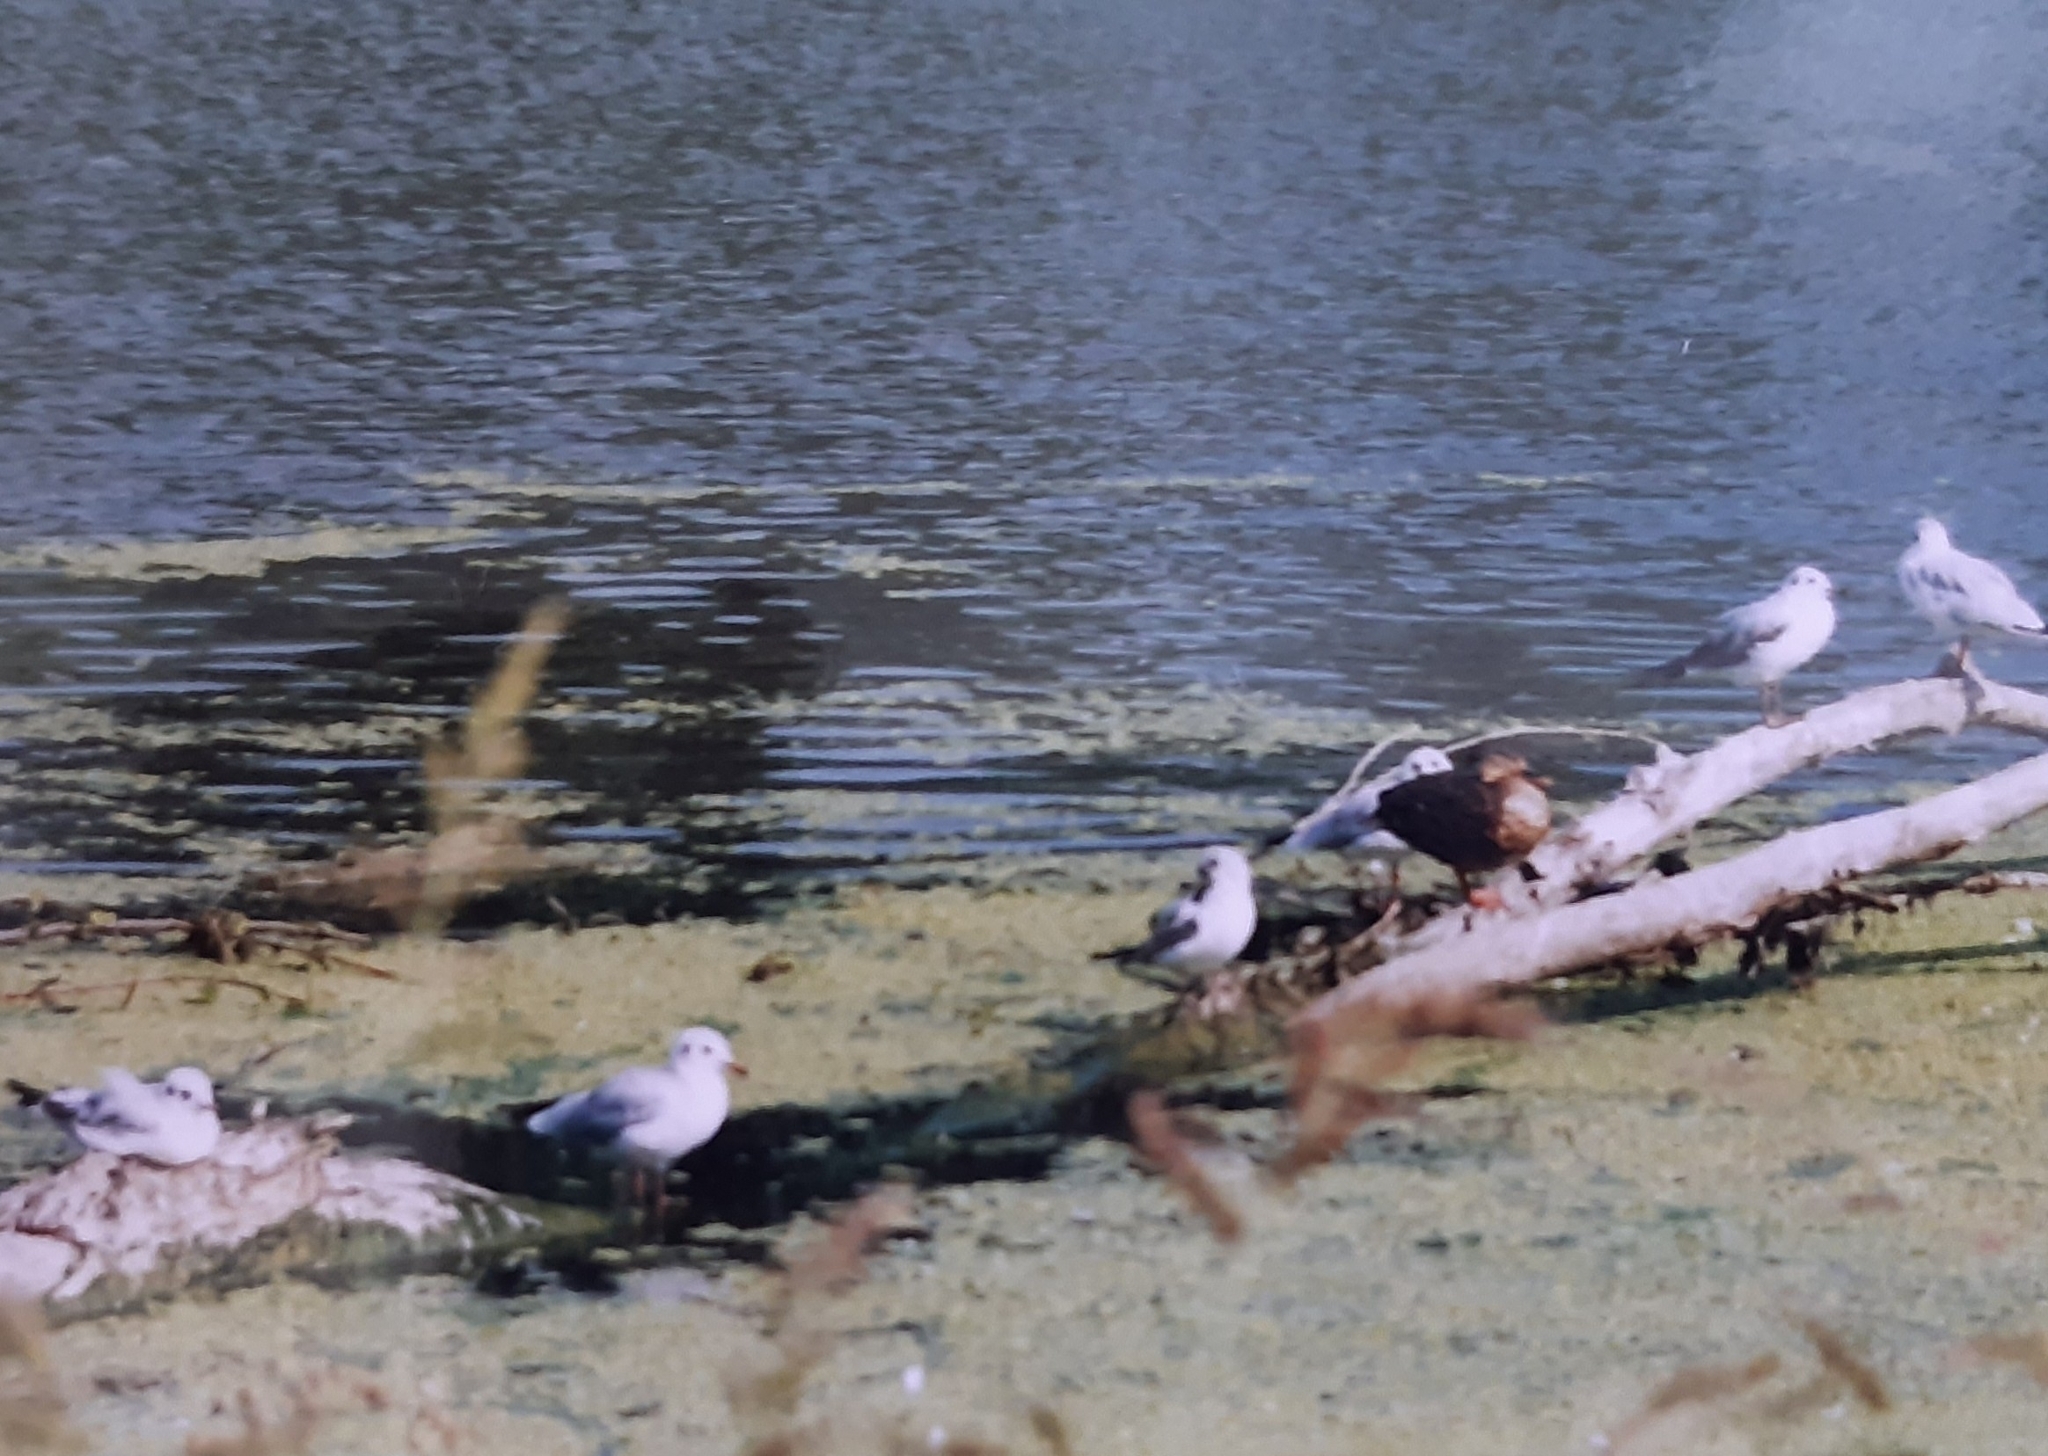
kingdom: Animalia
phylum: Chordata
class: Aves
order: Charadriiformes
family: Laridae
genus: Chroicocephalus
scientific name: Chroicocephalus ridibundus
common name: Black-headed gull
